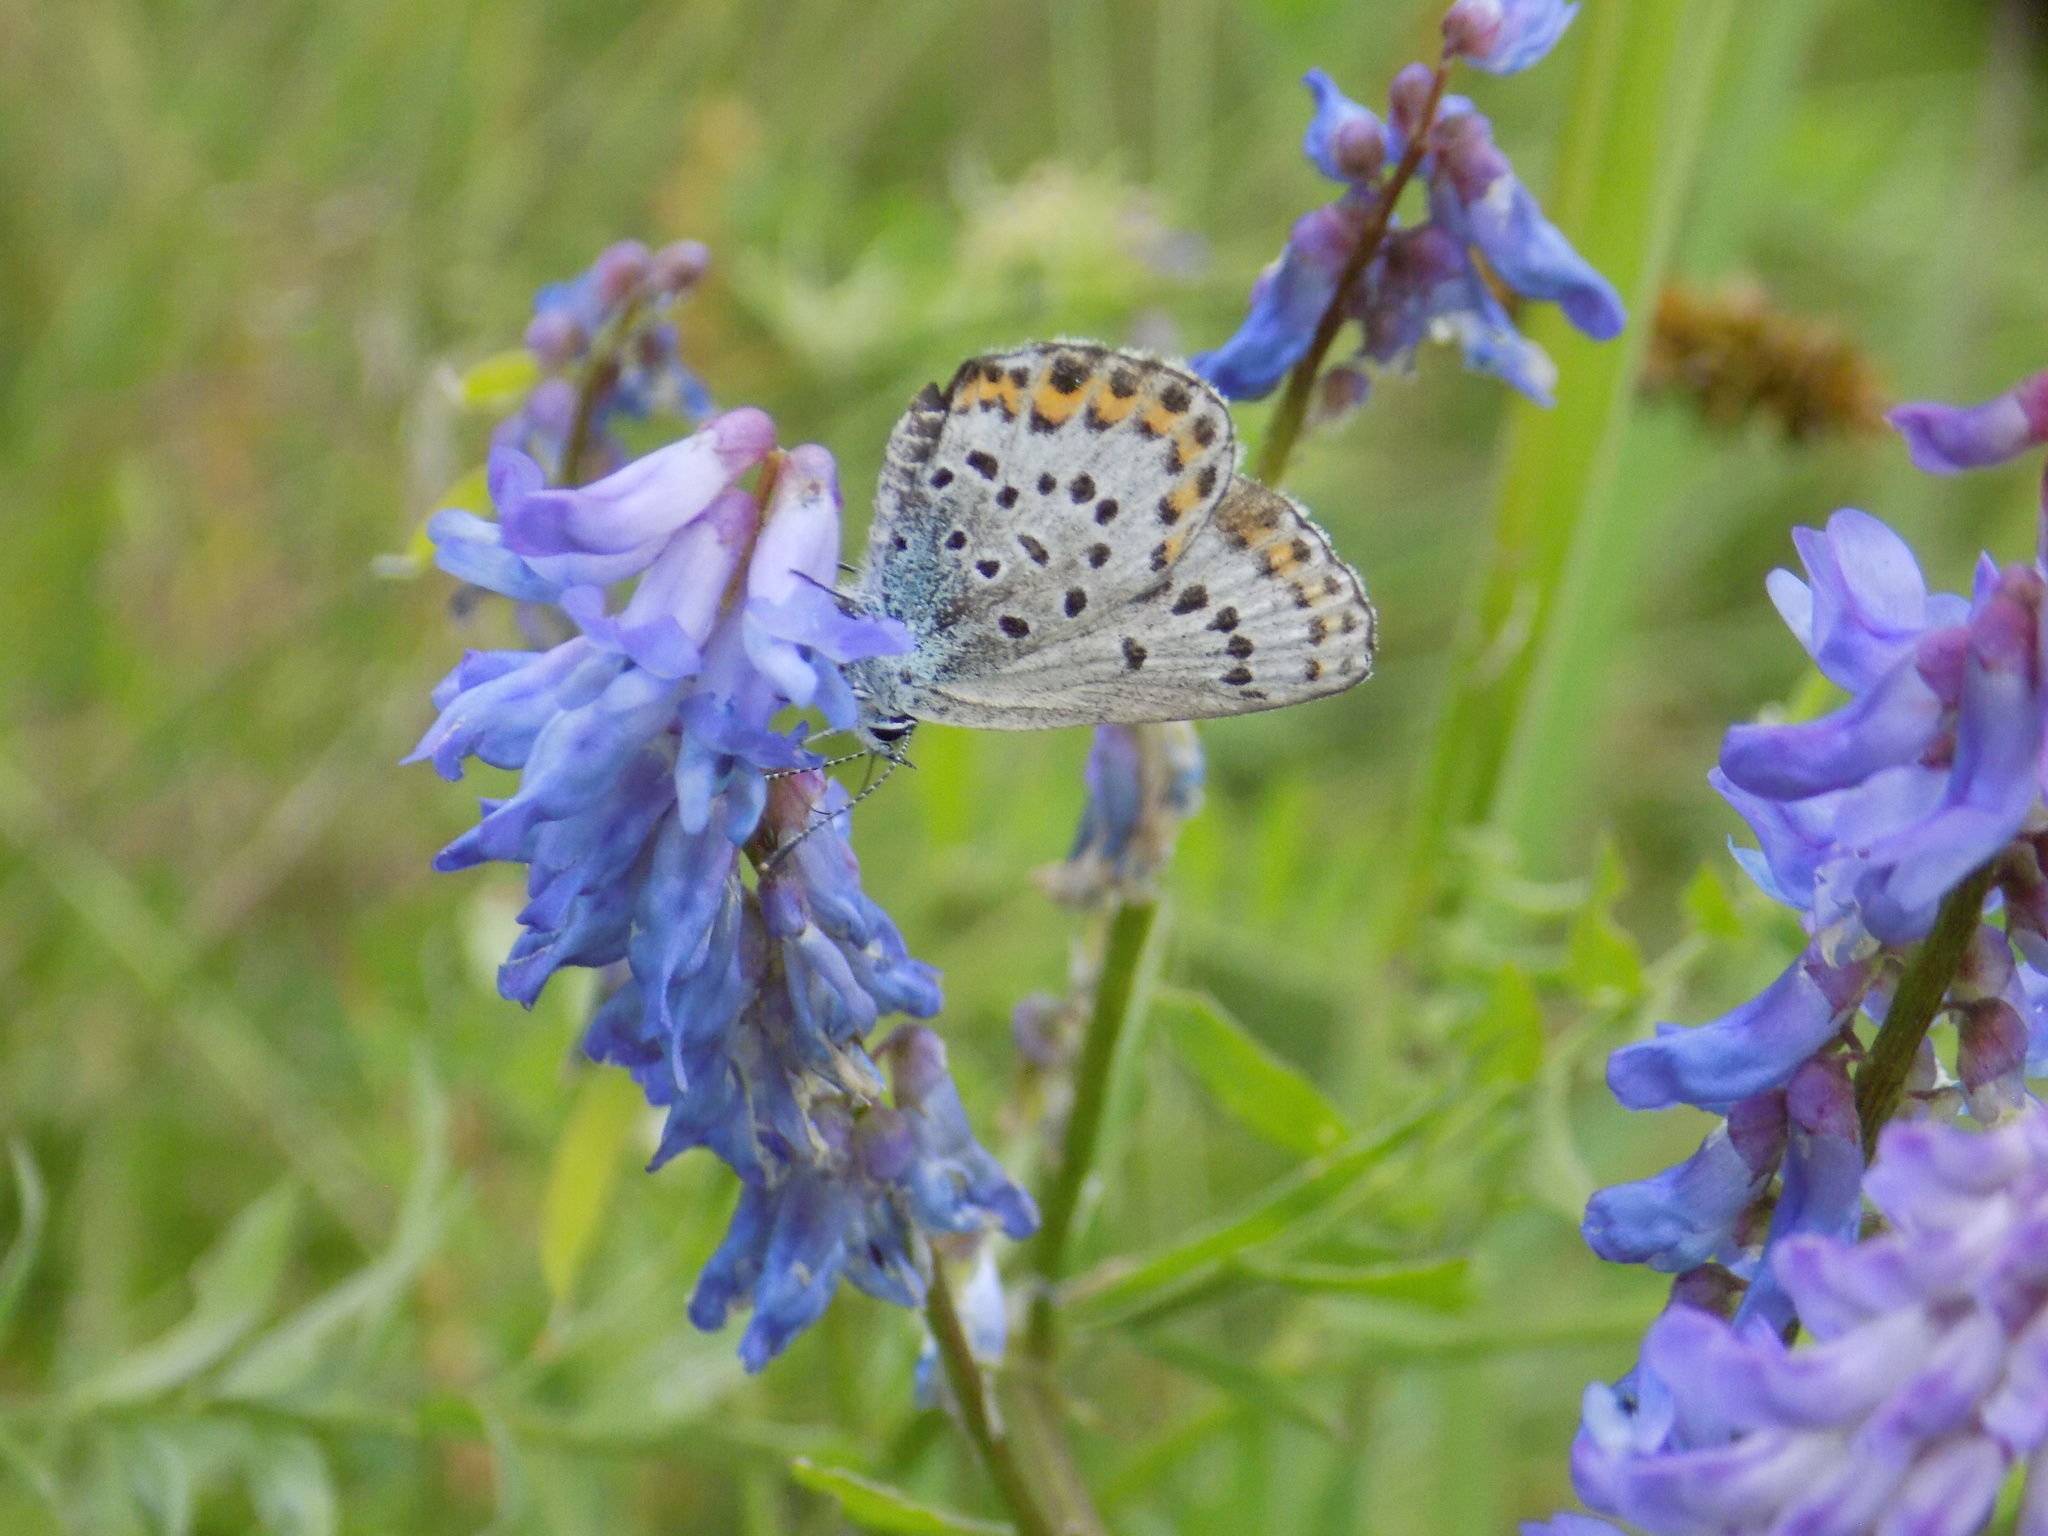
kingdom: Animalia
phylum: Arthropoda
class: Insecta
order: Lepidoptera
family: Lycaenidae
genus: Lycaeides
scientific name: Lycaeides idas
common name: Northern blue
